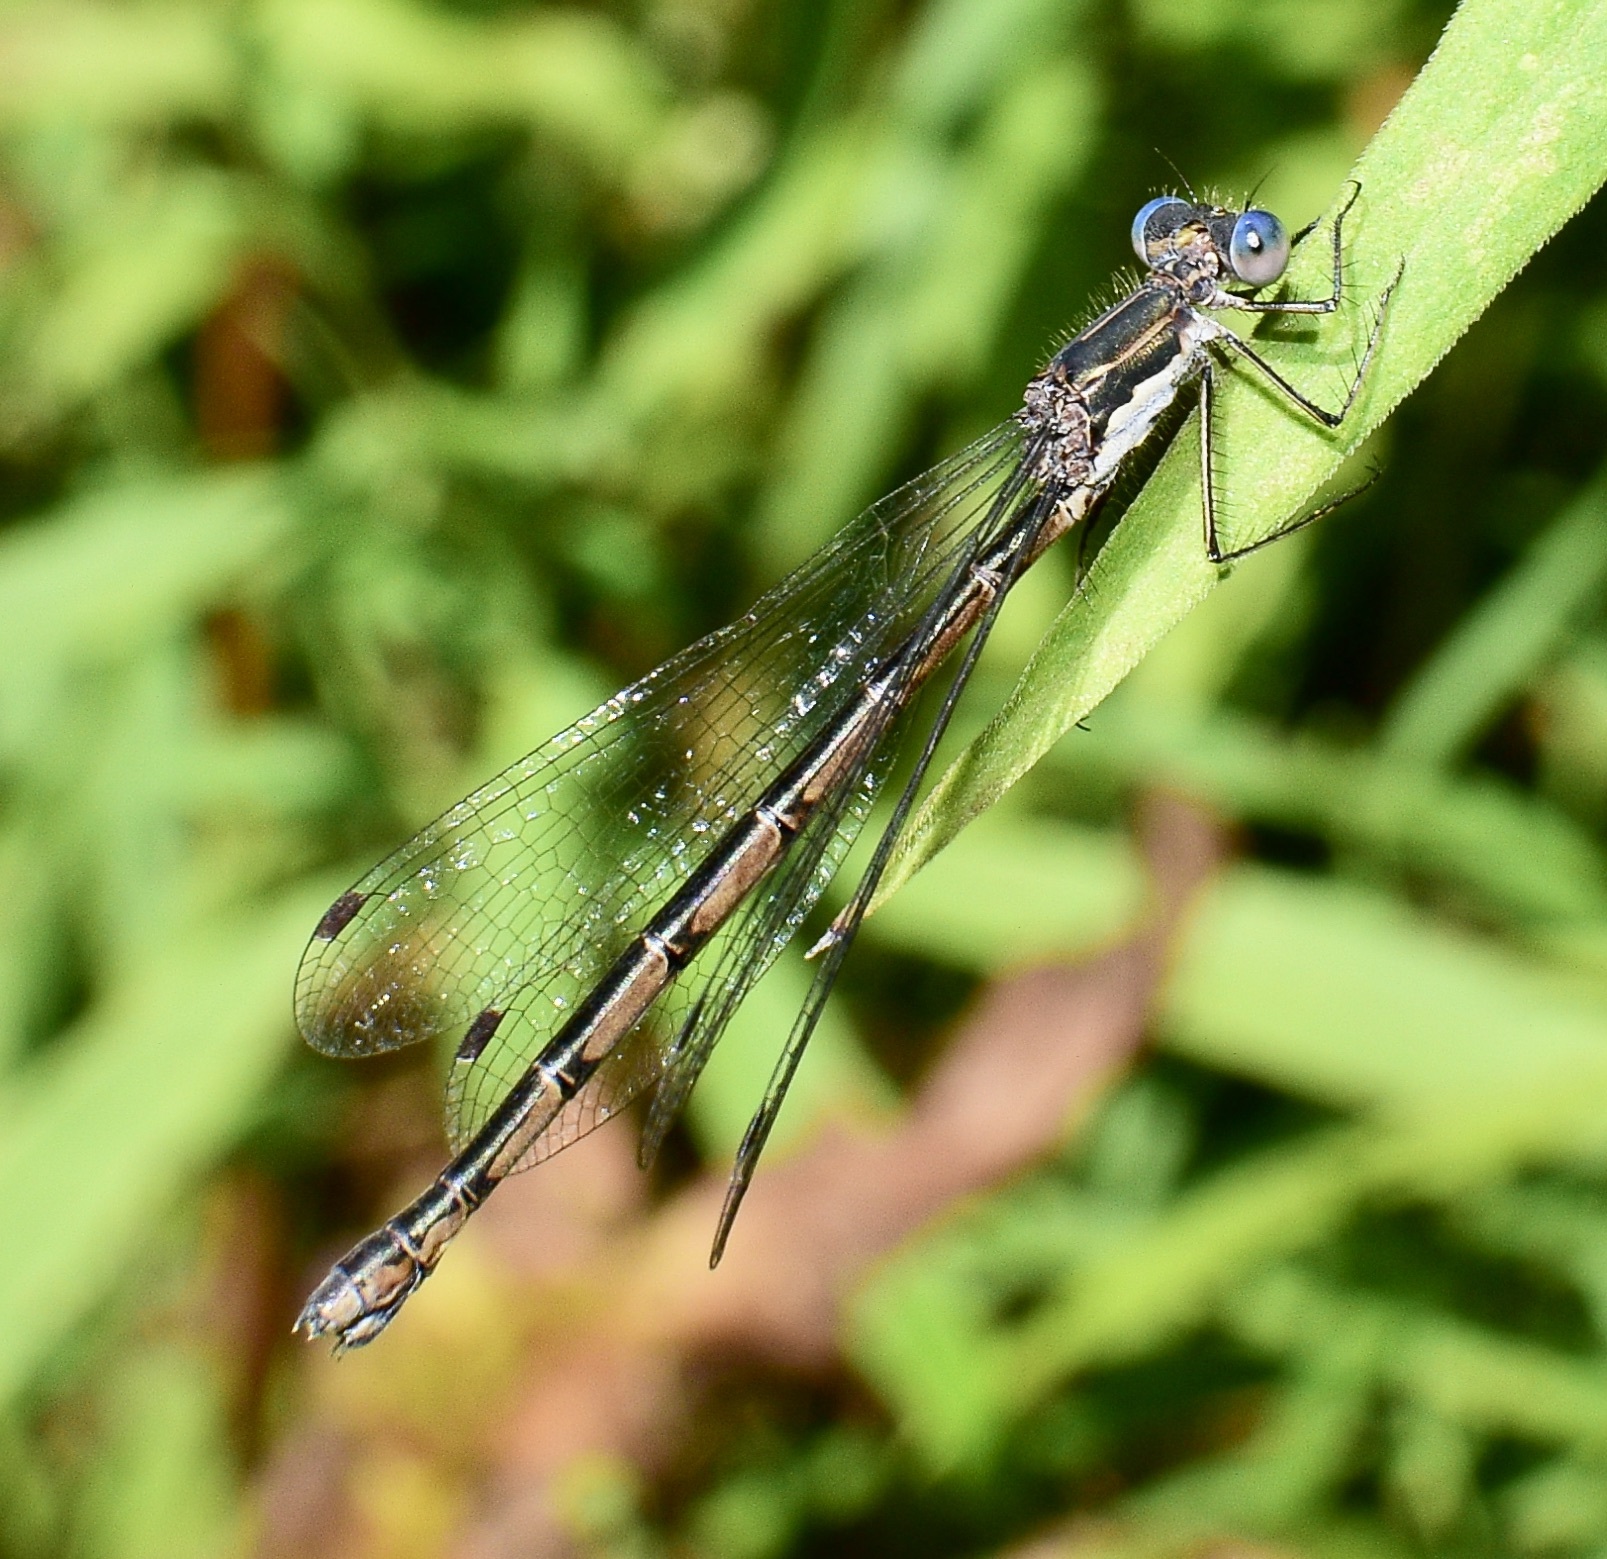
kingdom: Animalia
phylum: Arthropoda
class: Insecta
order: Odonata
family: Lestidae
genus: Lestes
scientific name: Lestes congener
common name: Spotted spreadwing
